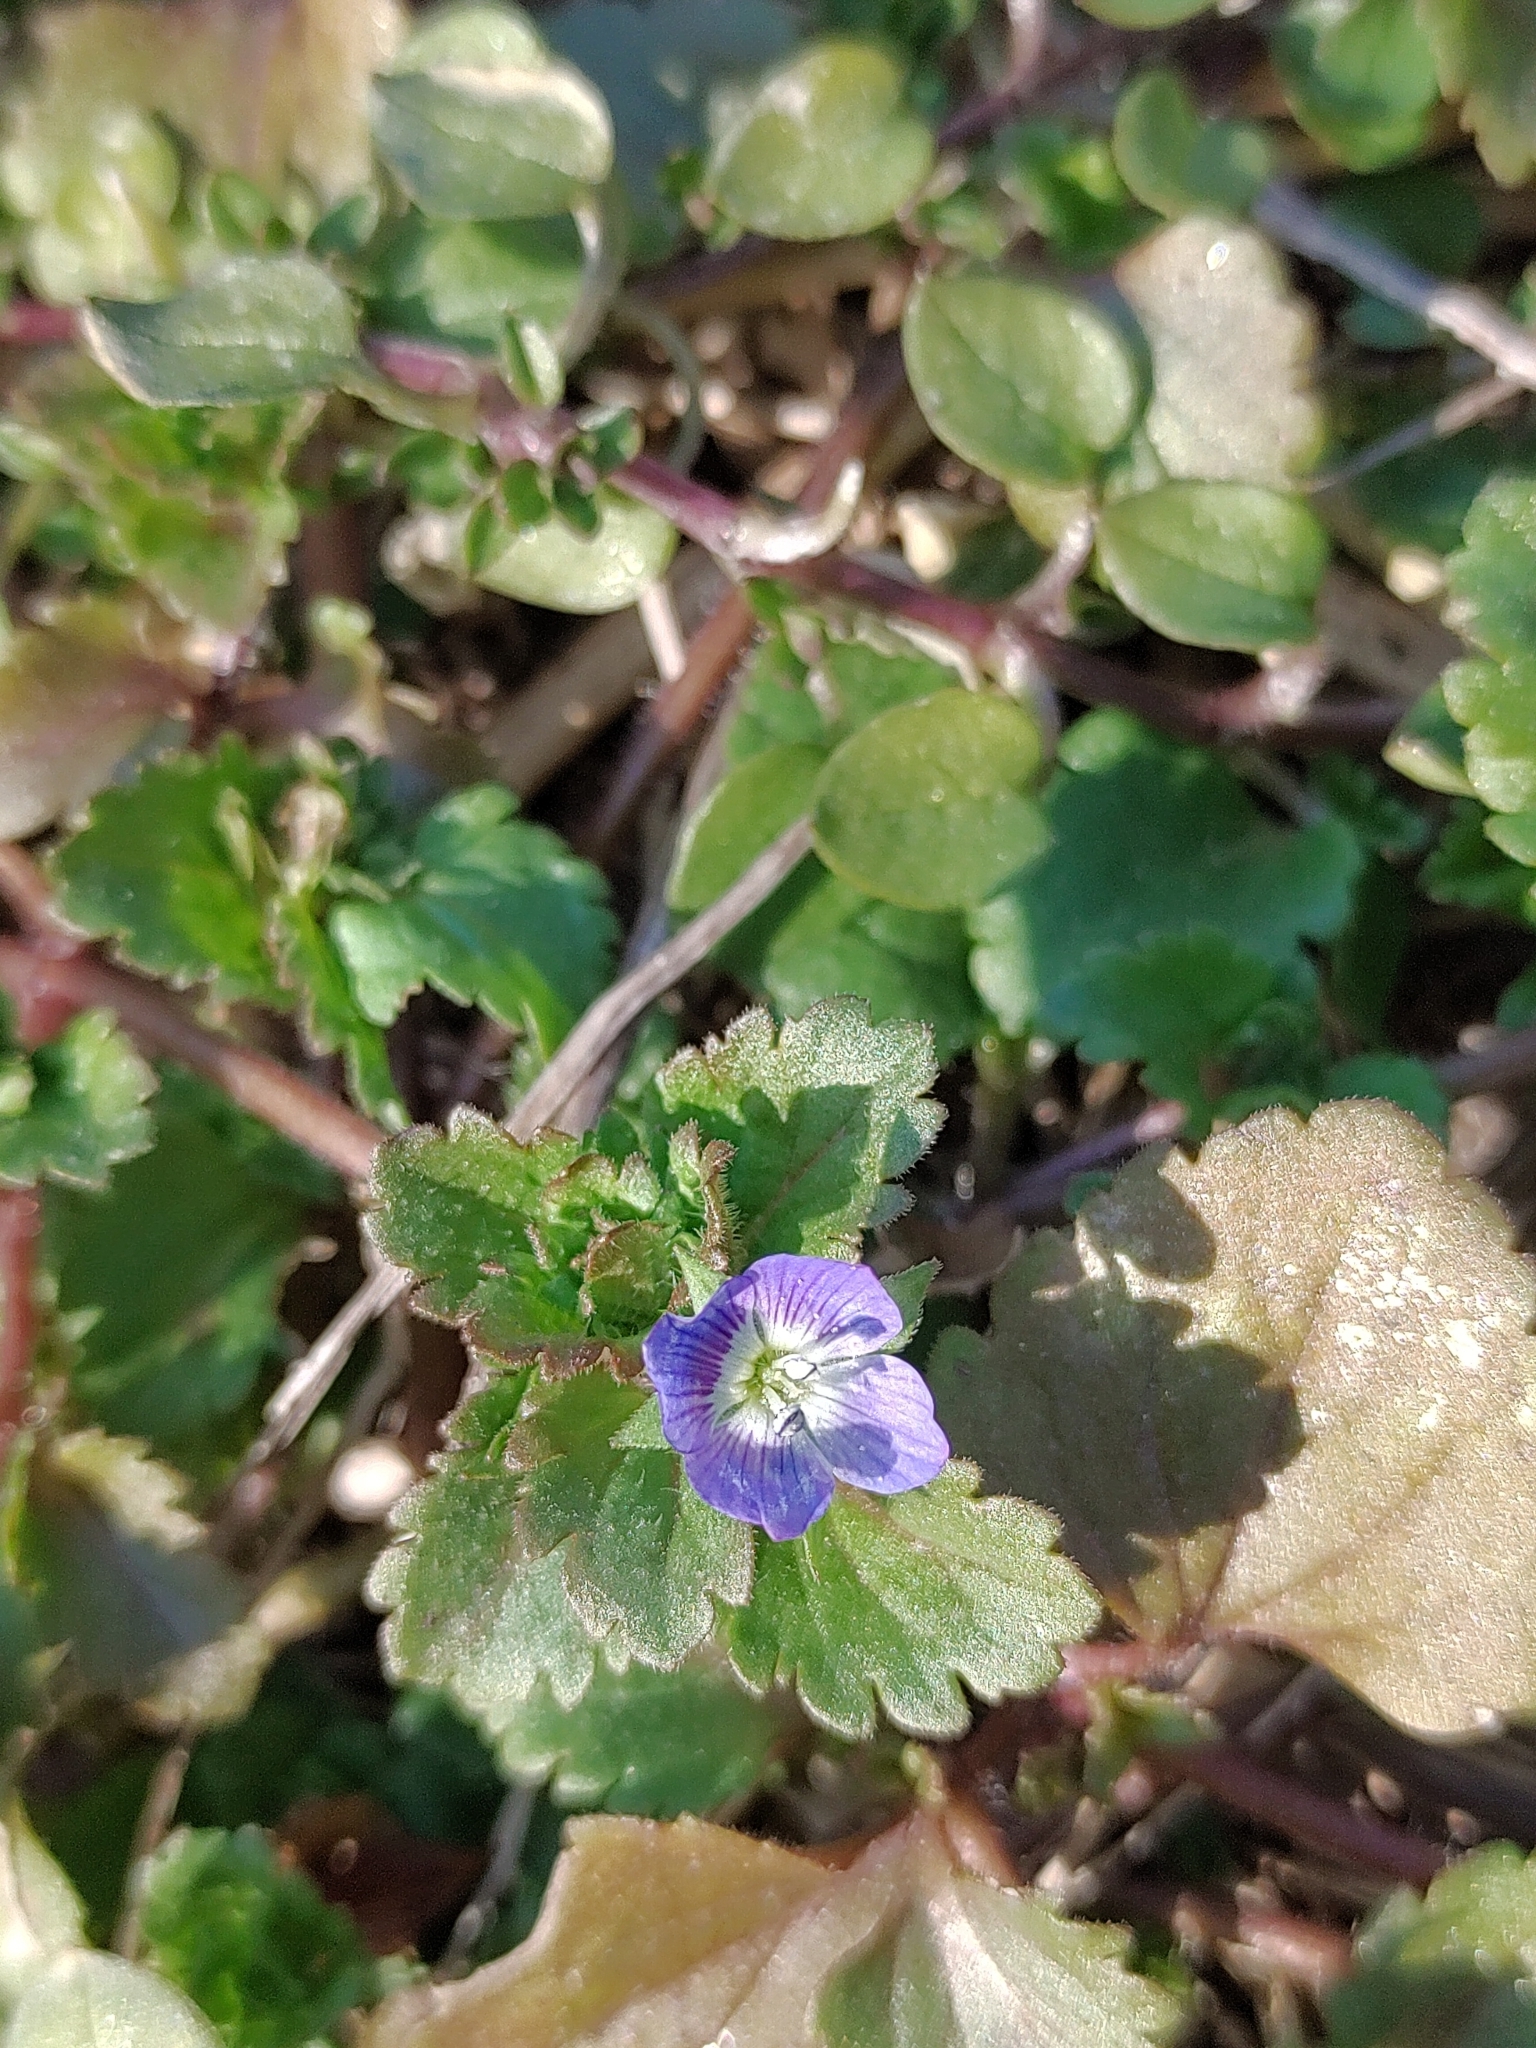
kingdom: Plantae
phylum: Tracheophyta
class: Magnoliopsida
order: Lamiales
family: Plantaginaceae
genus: Veronica
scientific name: Veronica persica
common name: Common field-speedwell
